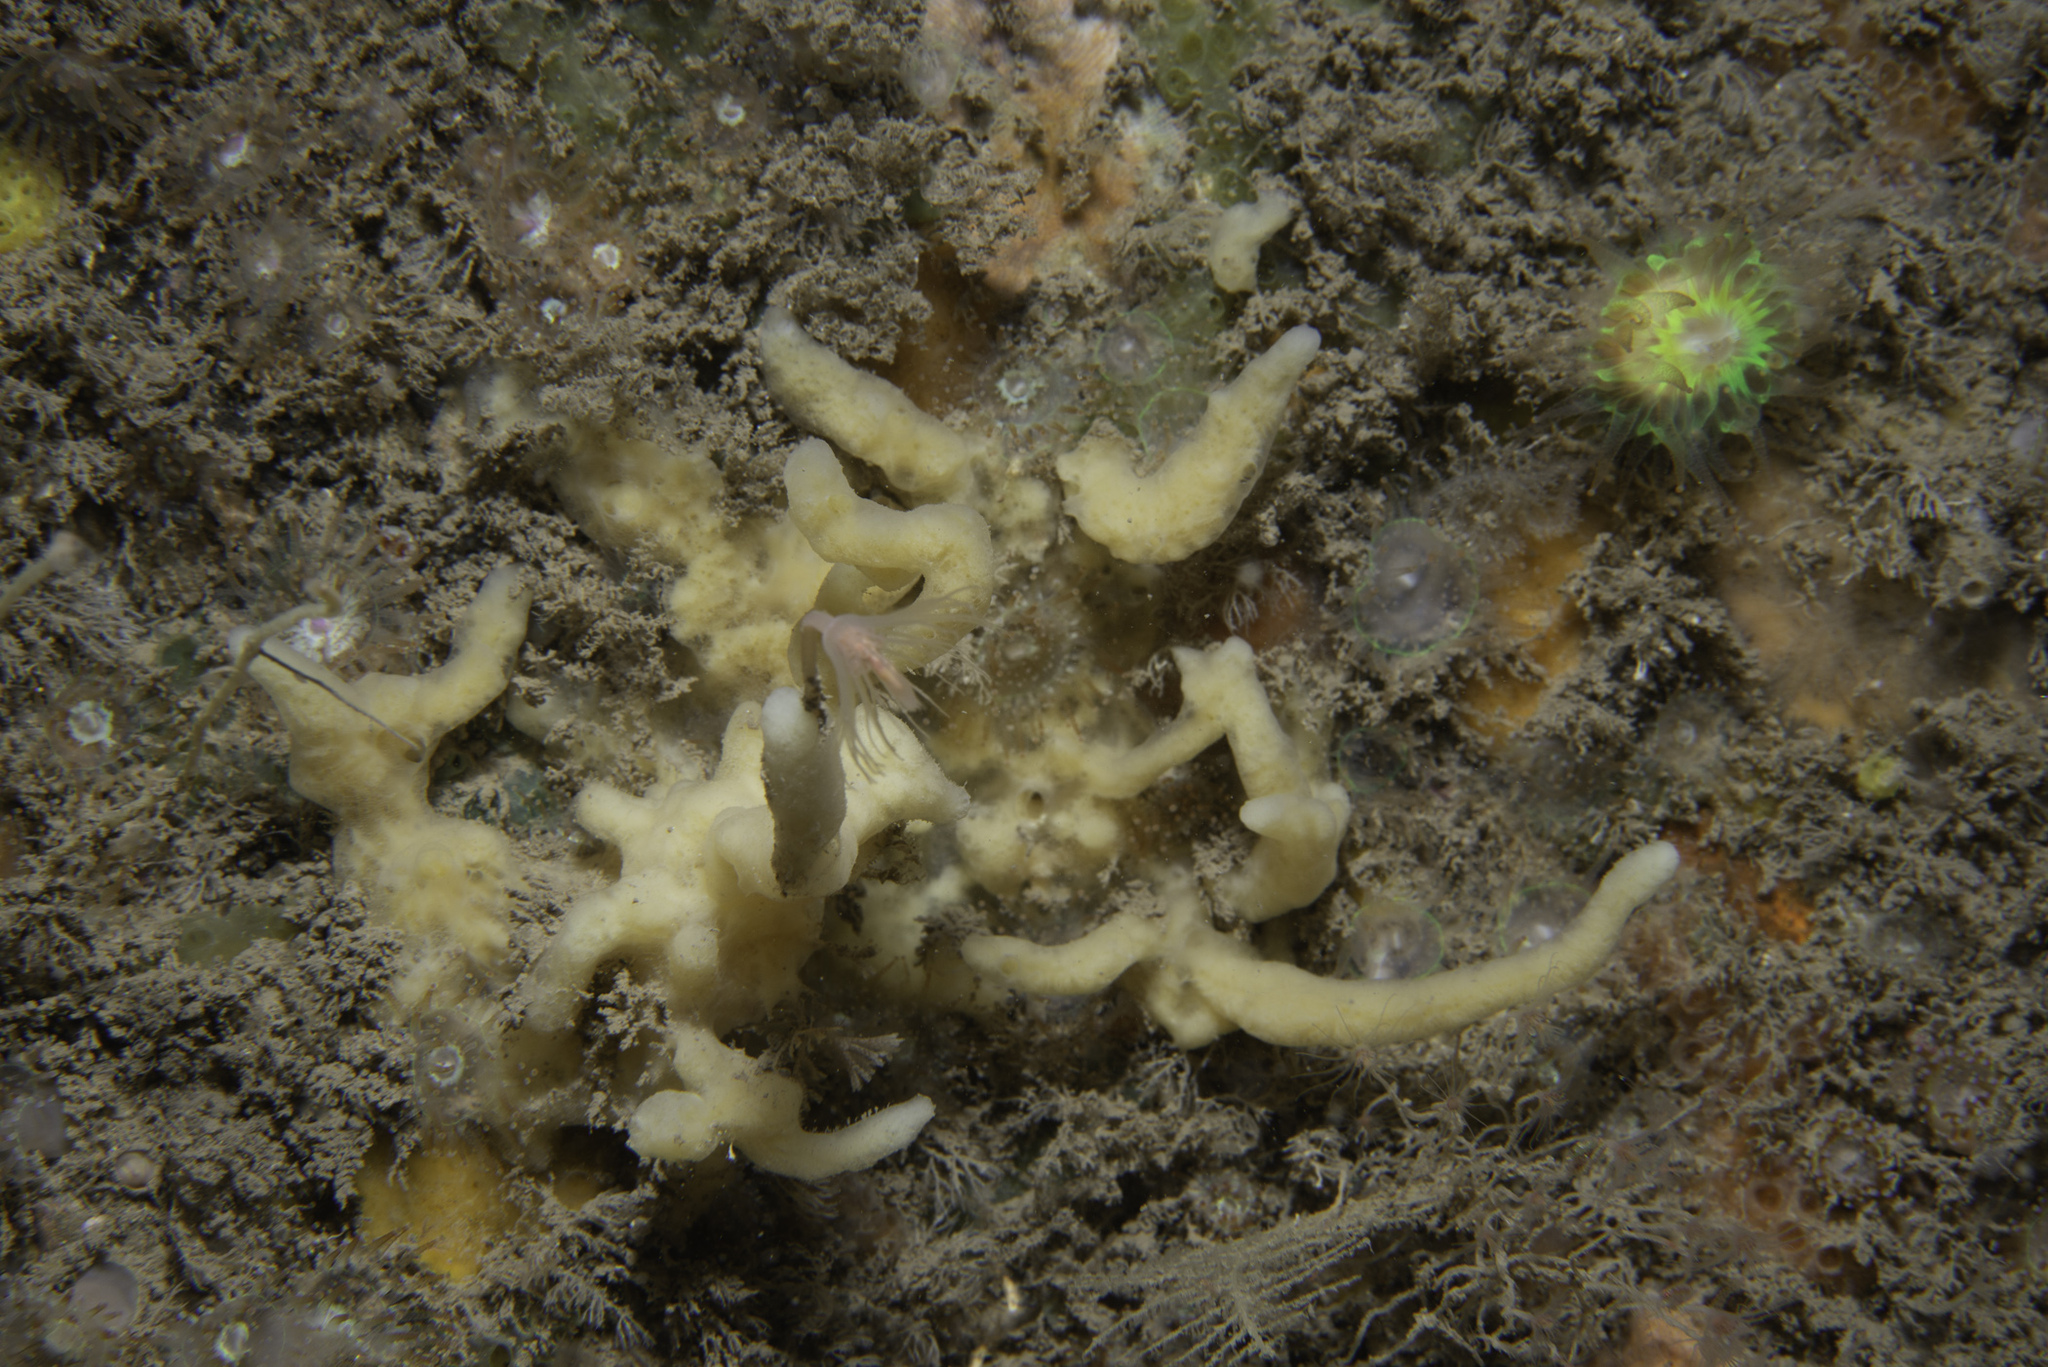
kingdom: Animalia
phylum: Porifera
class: Demospongiae
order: Poecilosclerida
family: Acarnidae
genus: Iophon
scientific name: Iophon hyndmani
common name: Hyndman's horny sponge
